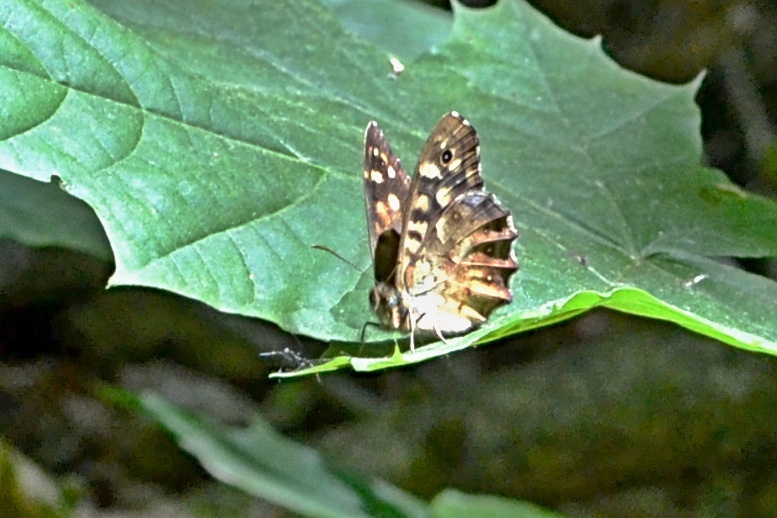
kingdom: Animalia
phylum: Arthropoda
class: Insecta
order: Lepidoptera
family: Nymphalidae
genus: Pararge
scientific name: Pararge aegeria
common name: Speckled wood
